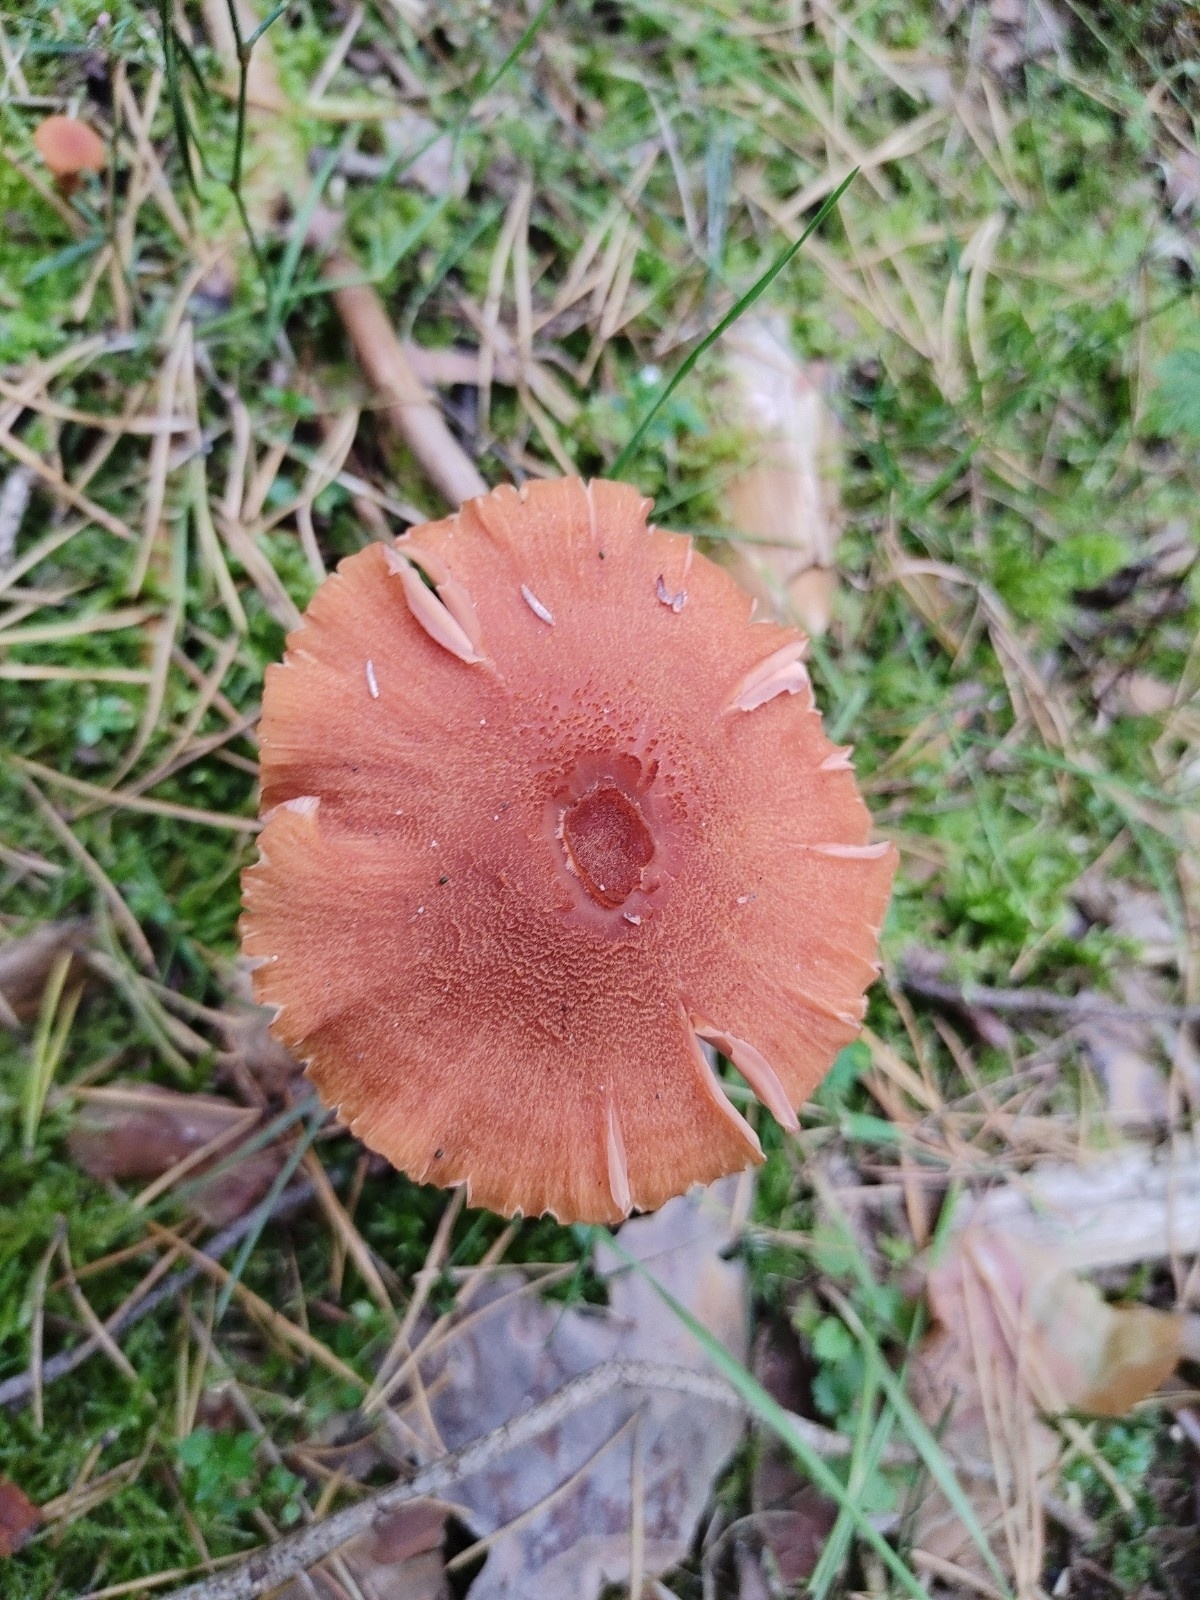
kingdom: Fungi
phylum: Basidiomycota
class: Agaricomycetes
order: Agaricales
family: Hydnangiaceae
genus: Laccaria
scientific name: Laccaria laccata
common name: Deceiver
